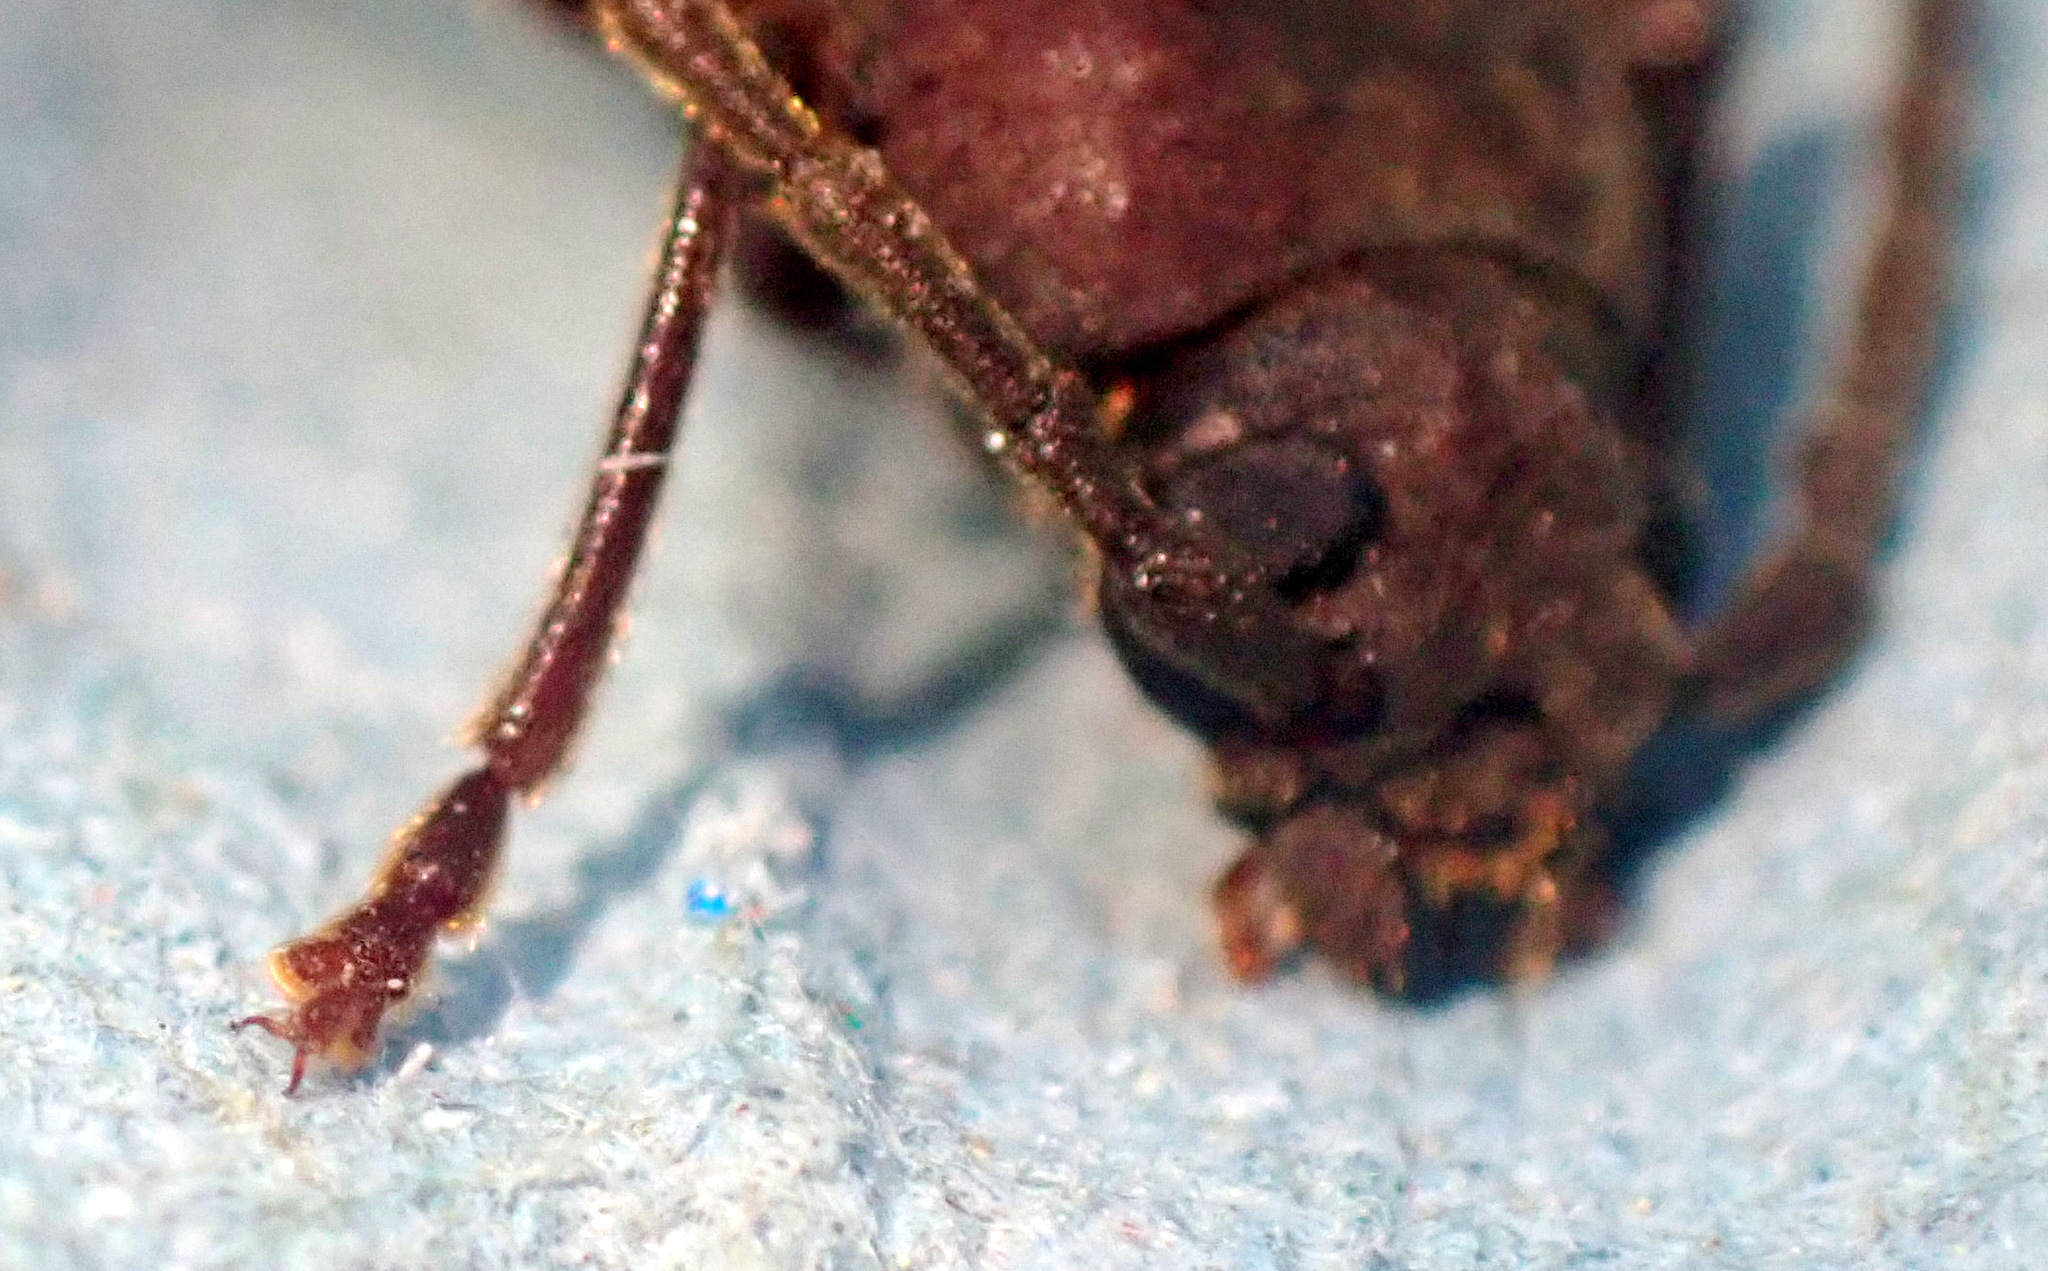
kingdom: Animalia
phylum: Arthropoda
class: Insecta
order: Coleoptera
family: Cerambycidae
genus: Arhopalus
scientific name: Arhopalus rusticus
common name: Rust pine borer
